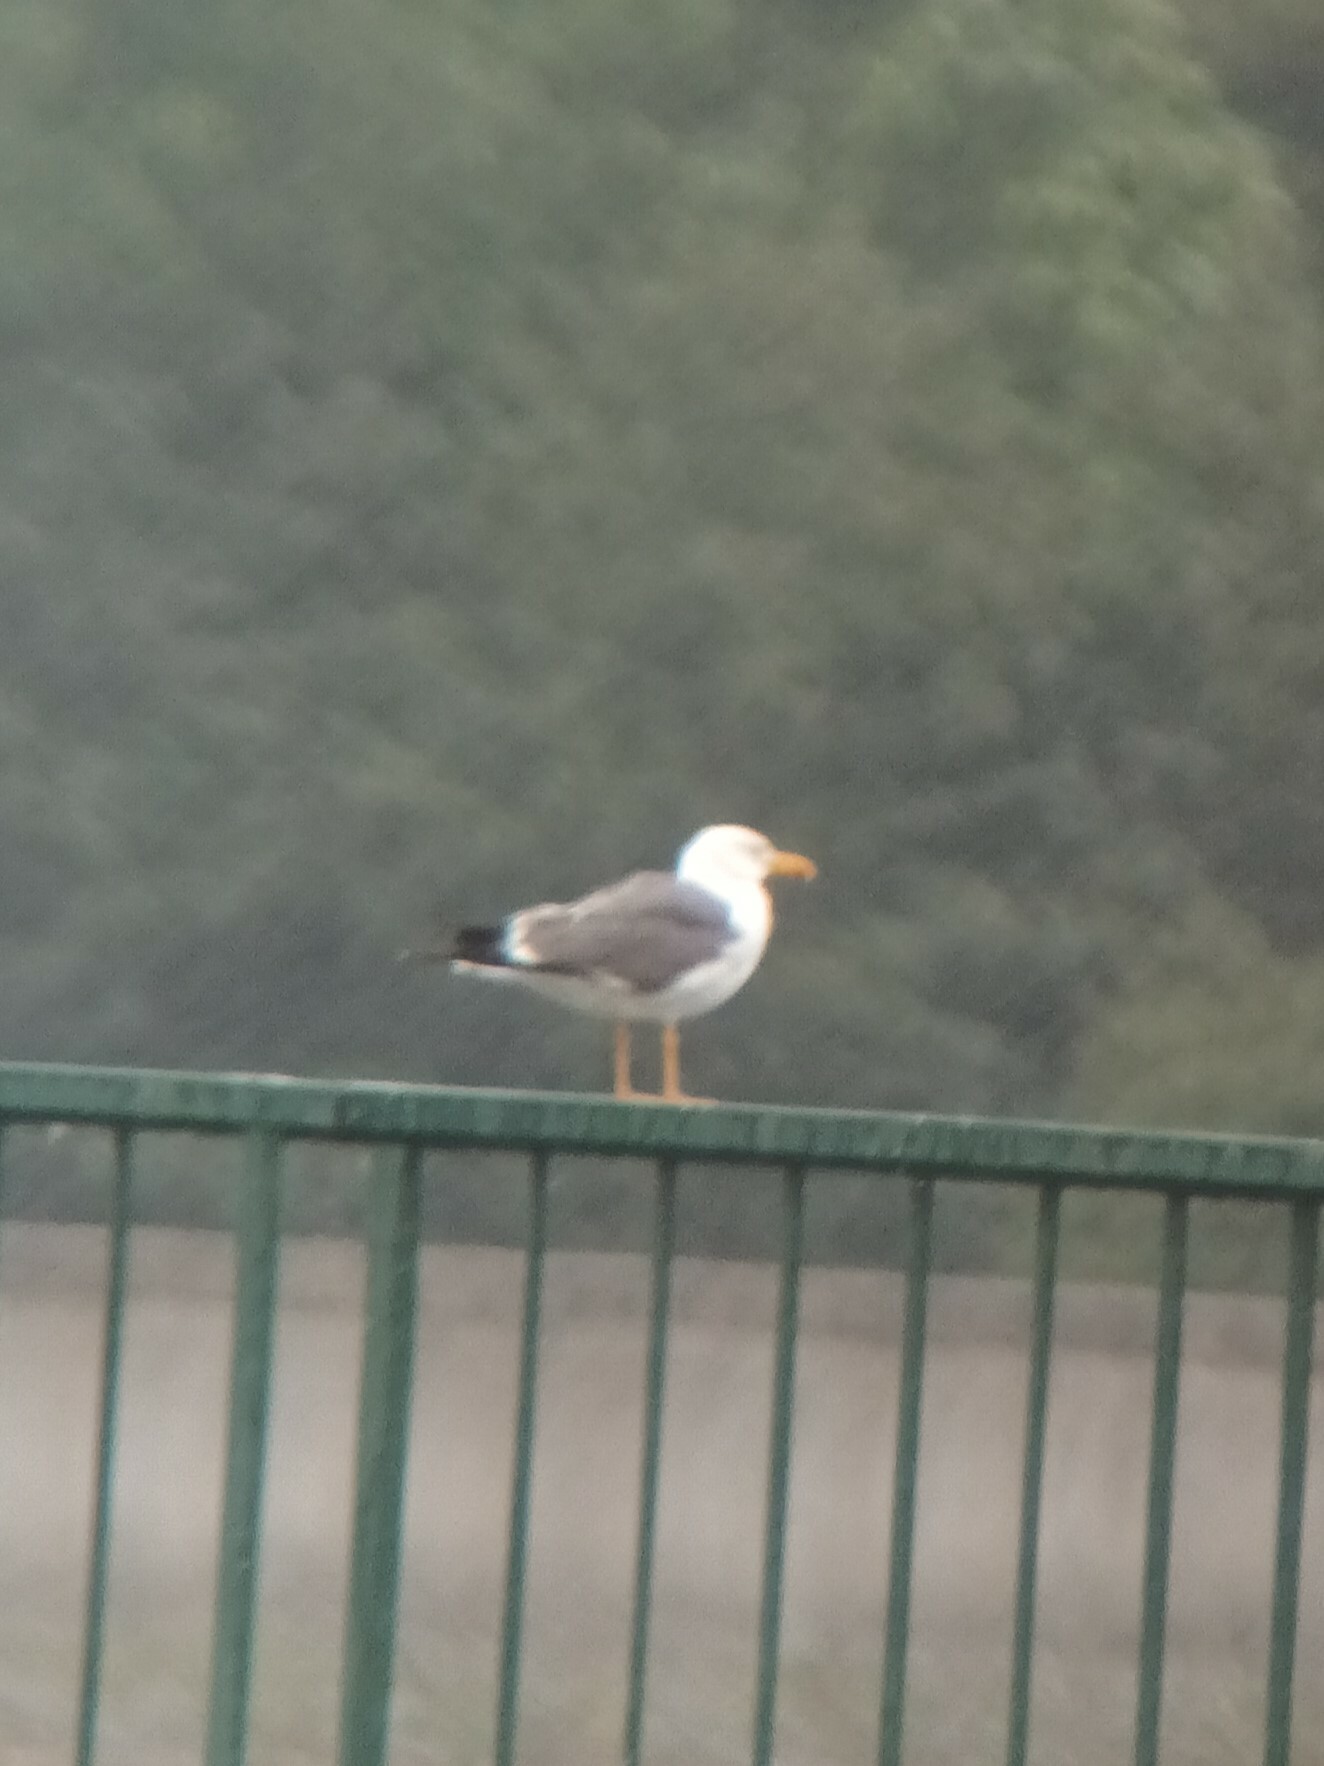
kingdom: Animalia
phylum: Chordata
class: Aves
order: Charadriiformes
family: Laridae
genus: Larus
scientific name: Larus fuscus
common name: Lesser black-backed gull
